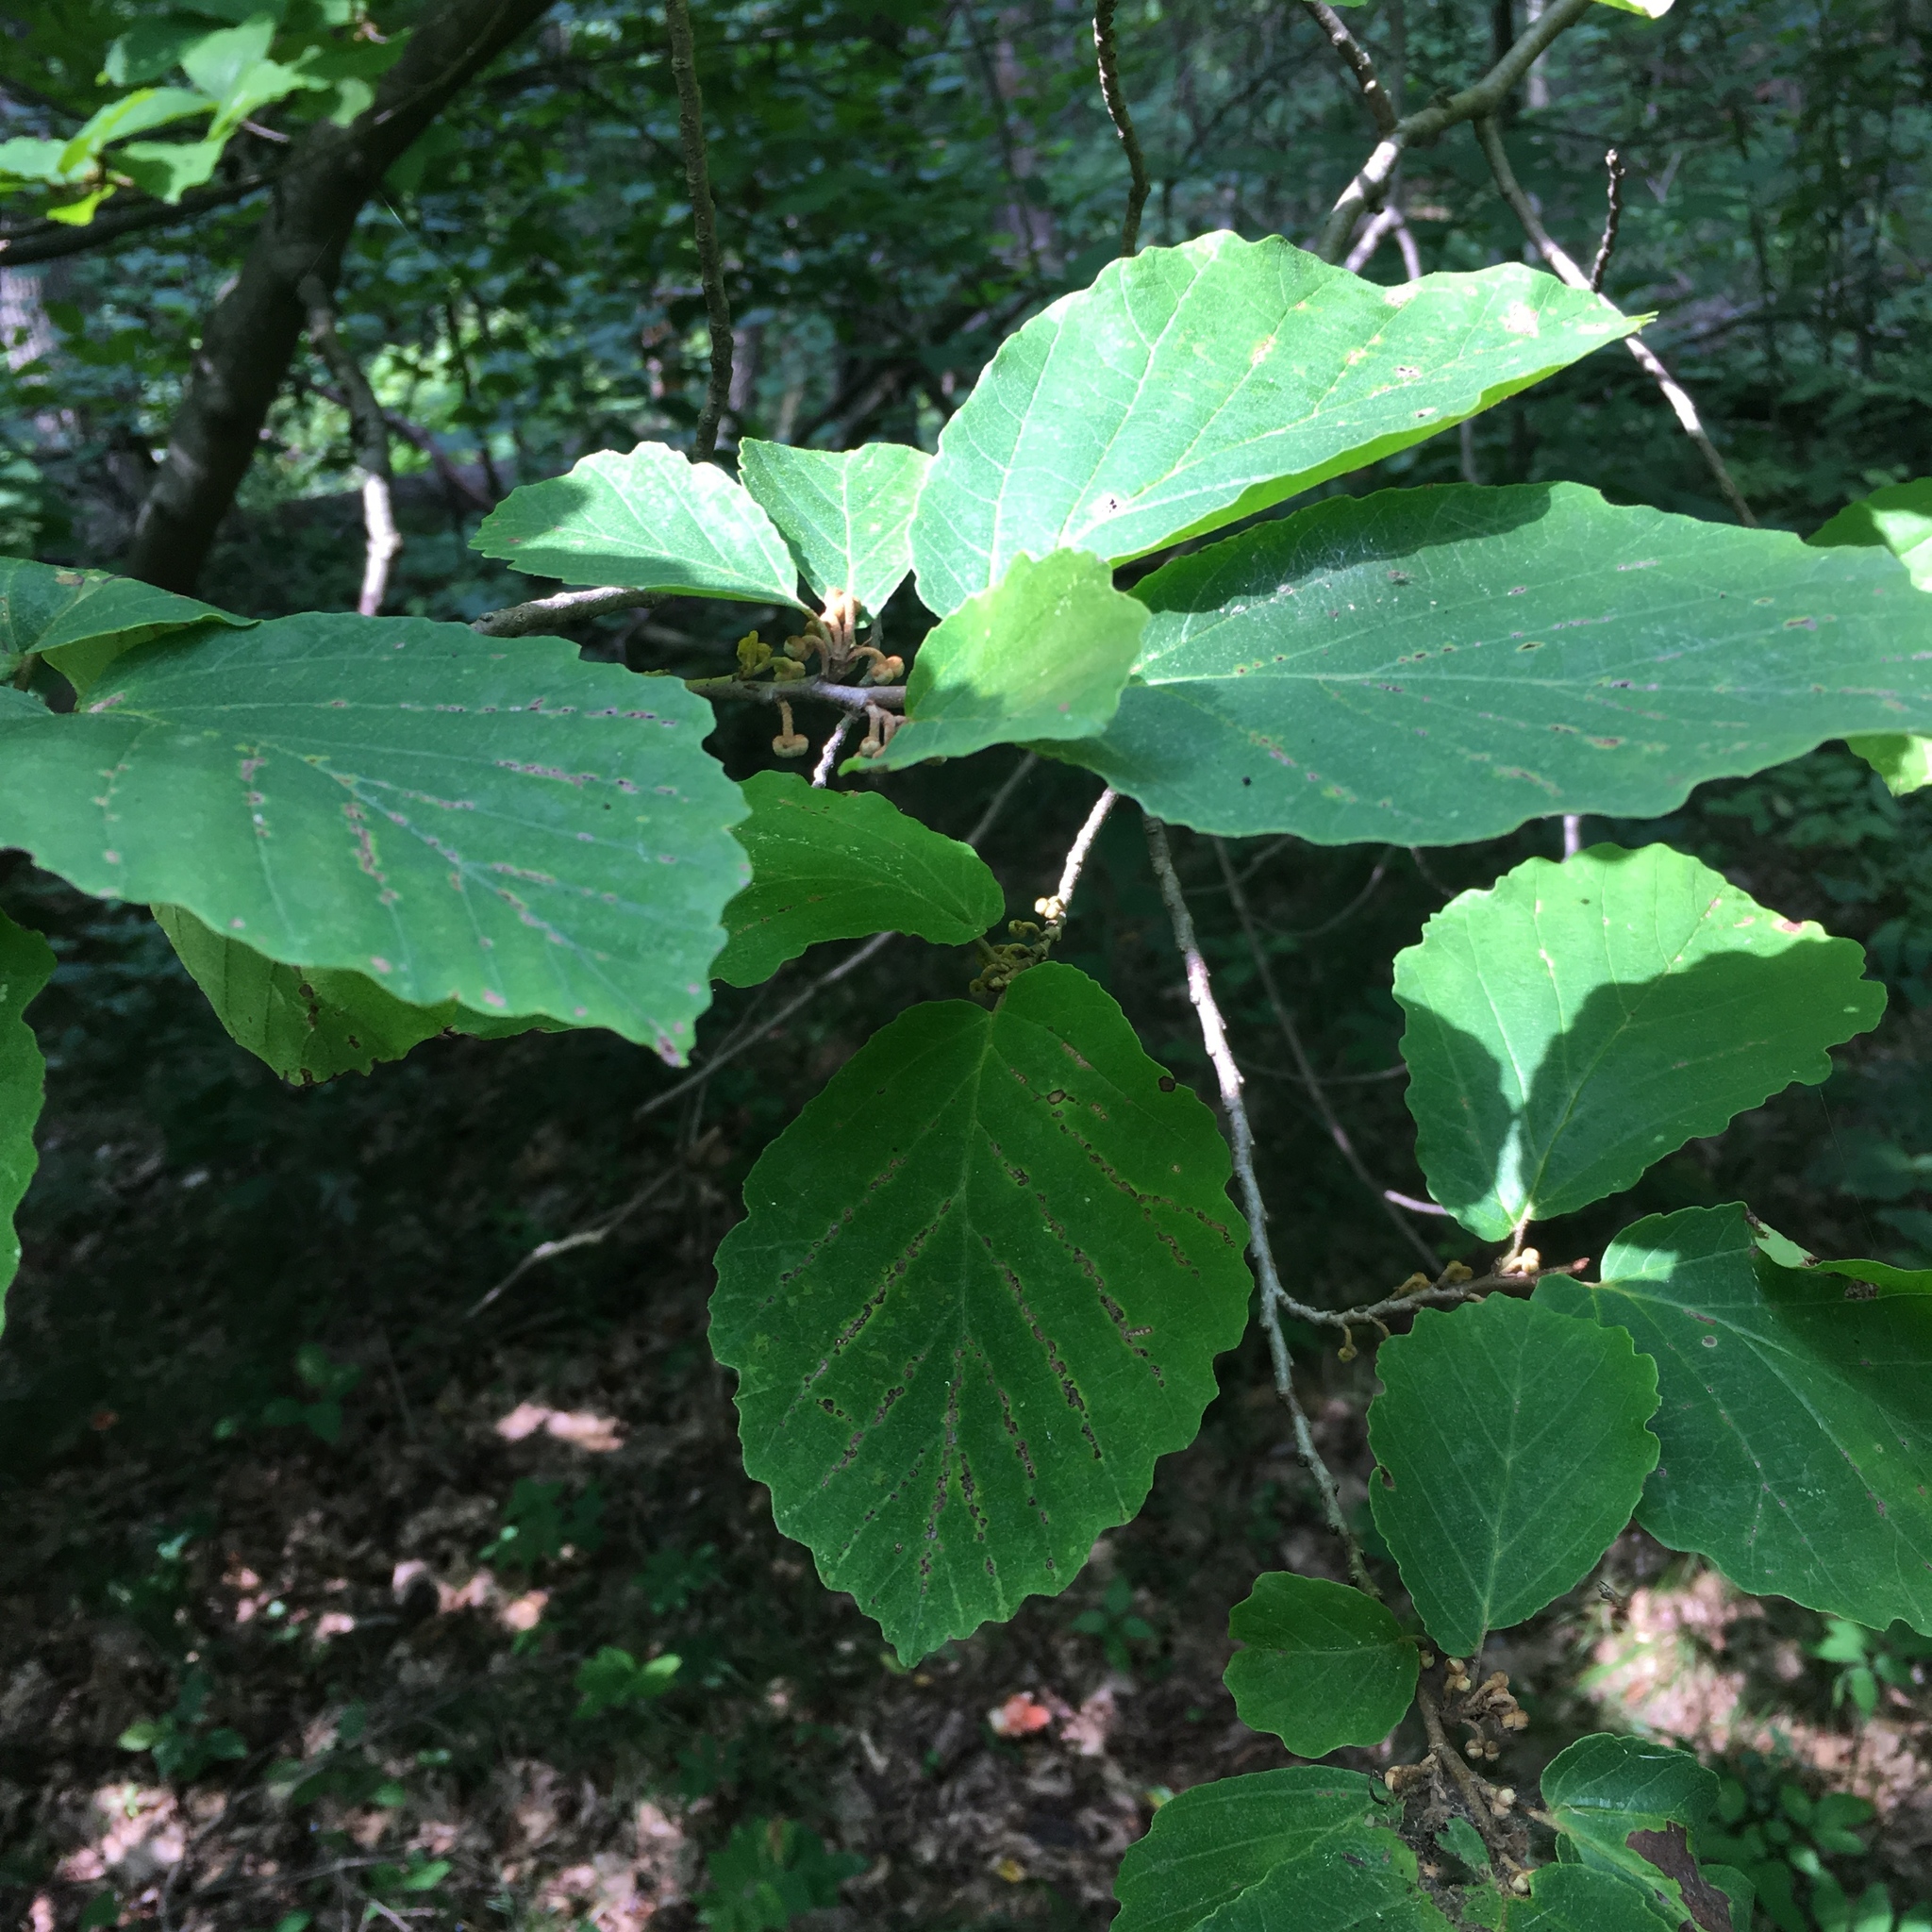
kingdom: Plantae
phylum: Tracheophyta
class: Magnoliopsida
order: Saxifragales
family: Hamamelidaceae
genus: Hamamelis
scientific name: Hamamelis virginiana
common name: Witch-hazel
